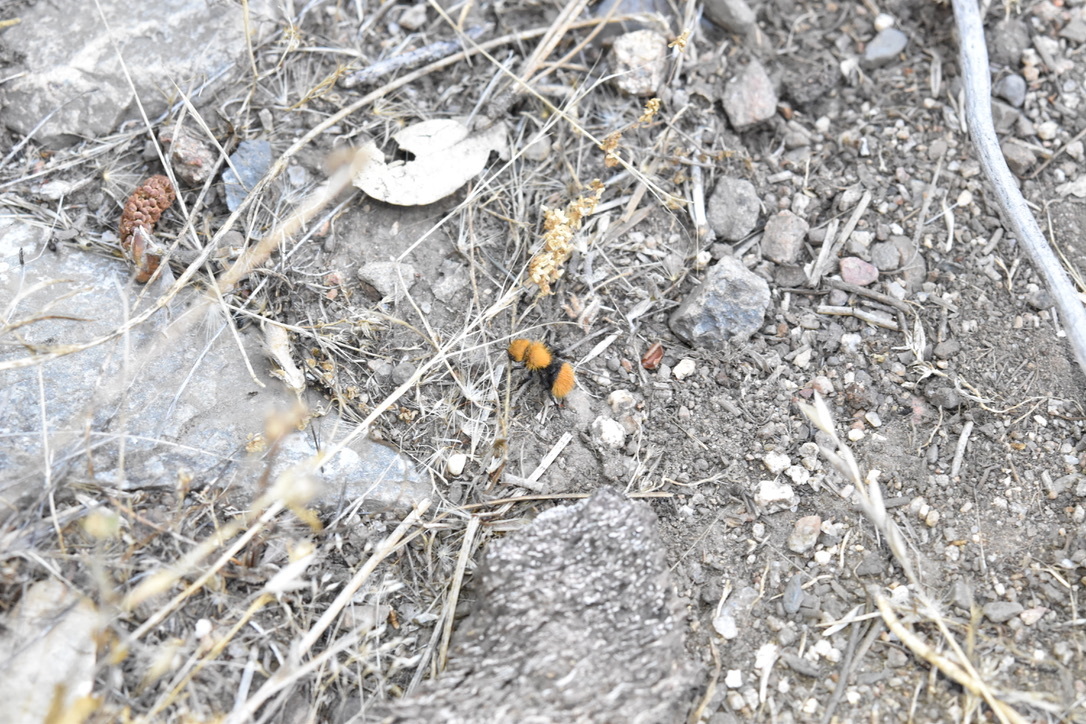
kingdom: Animalia
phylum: Arthropoda
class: Insecta
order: Hymenoptera
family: Mutillidae
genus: Dasymutilla
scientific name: Dasymutilla
